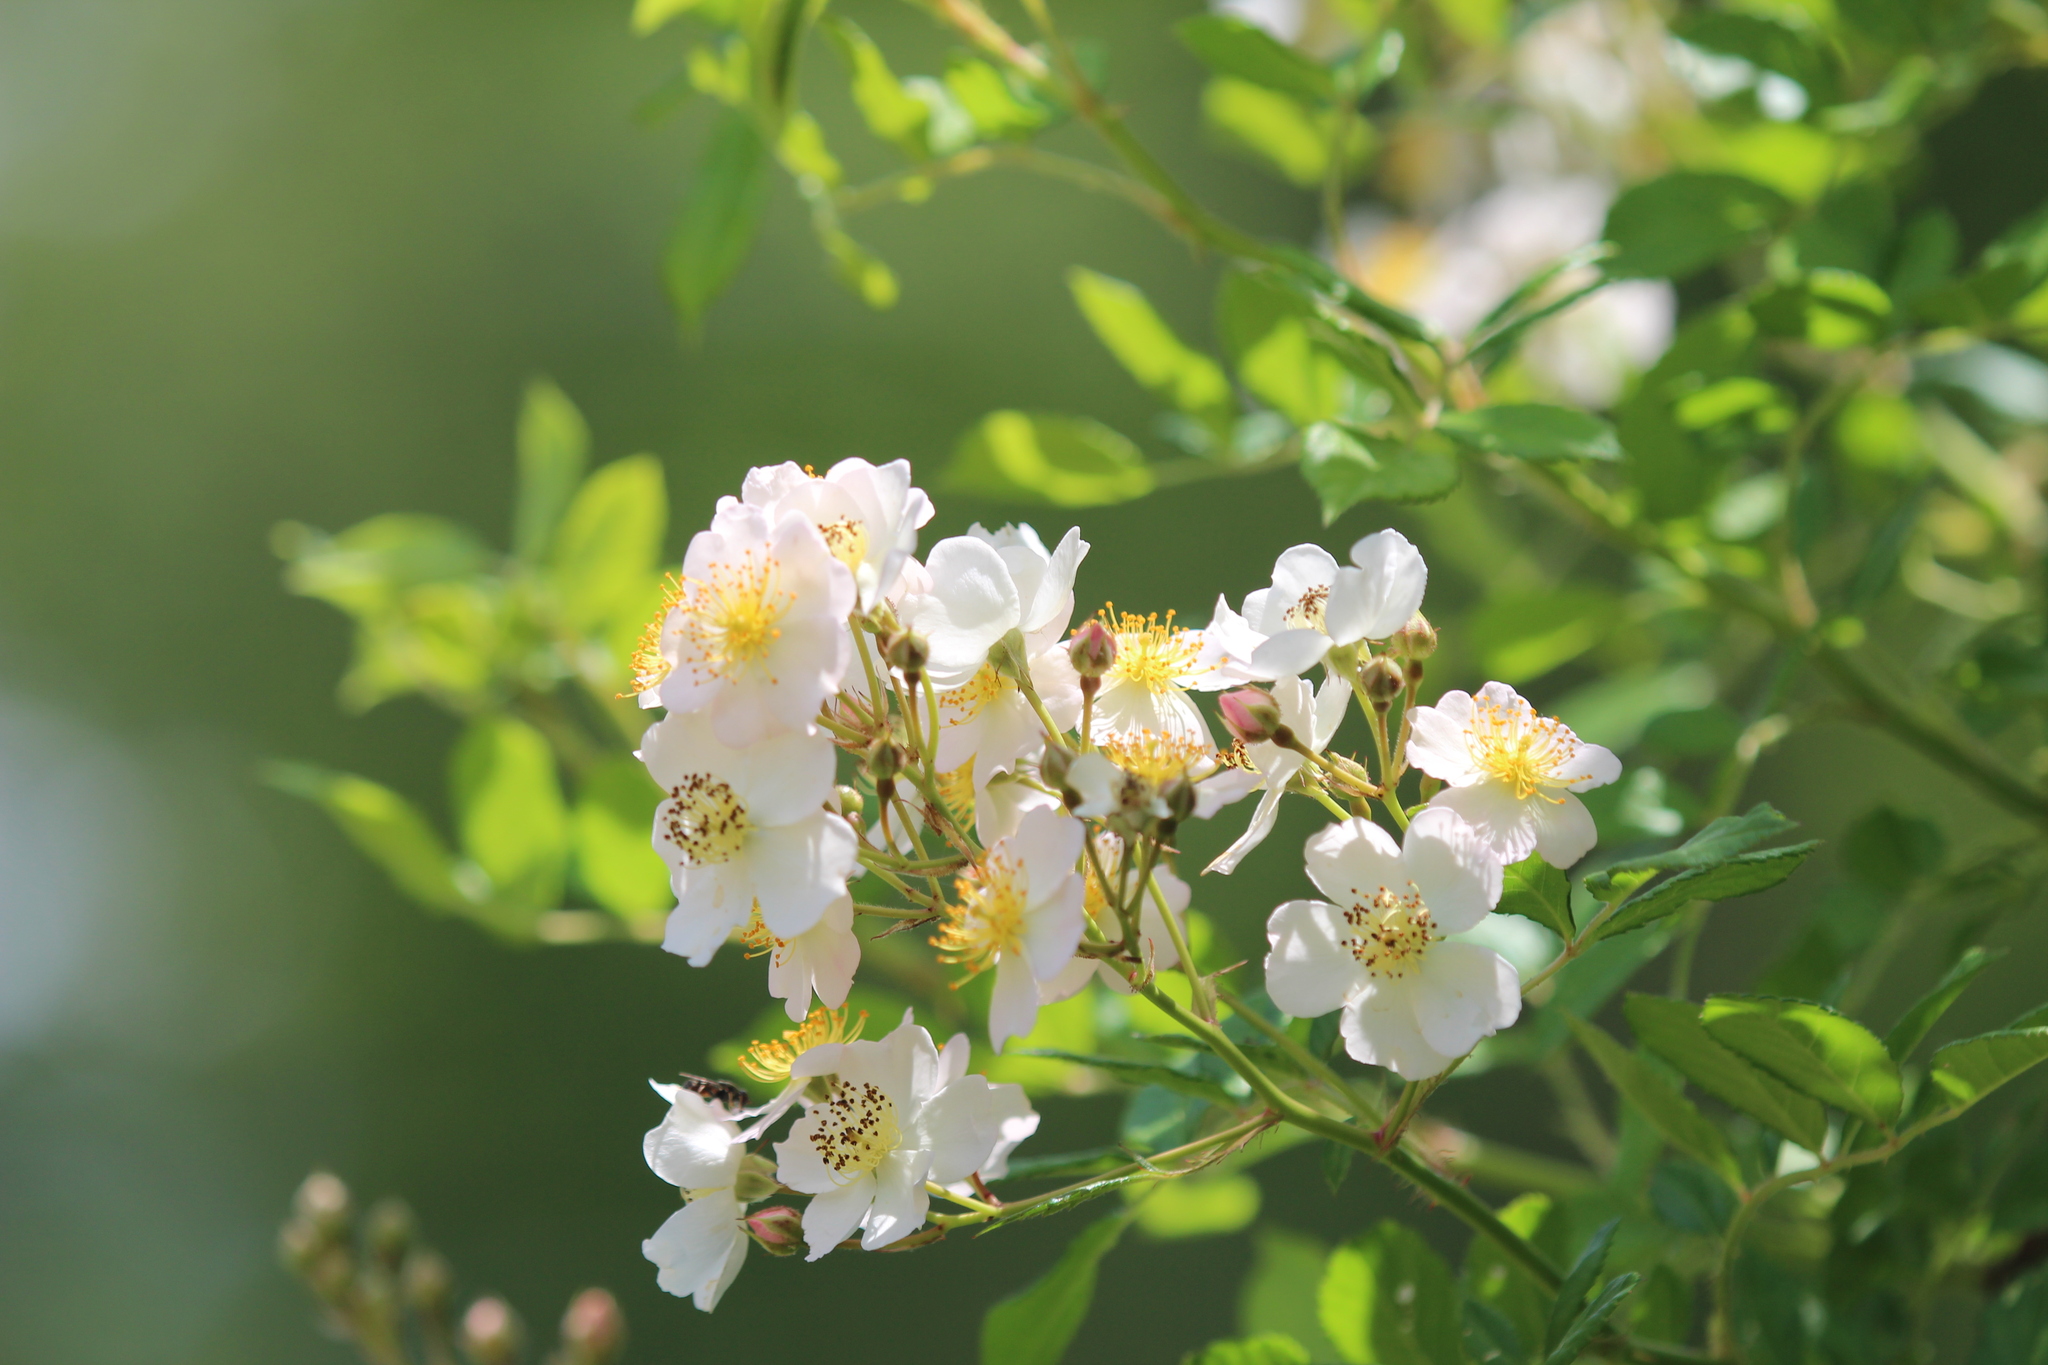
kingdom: Plantae
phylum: Tracheophyta
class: Magnoliopsida
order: Rosales
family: Rosaceae
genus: Rosa
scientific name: Rosa multiflora
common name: Multiflora rose
